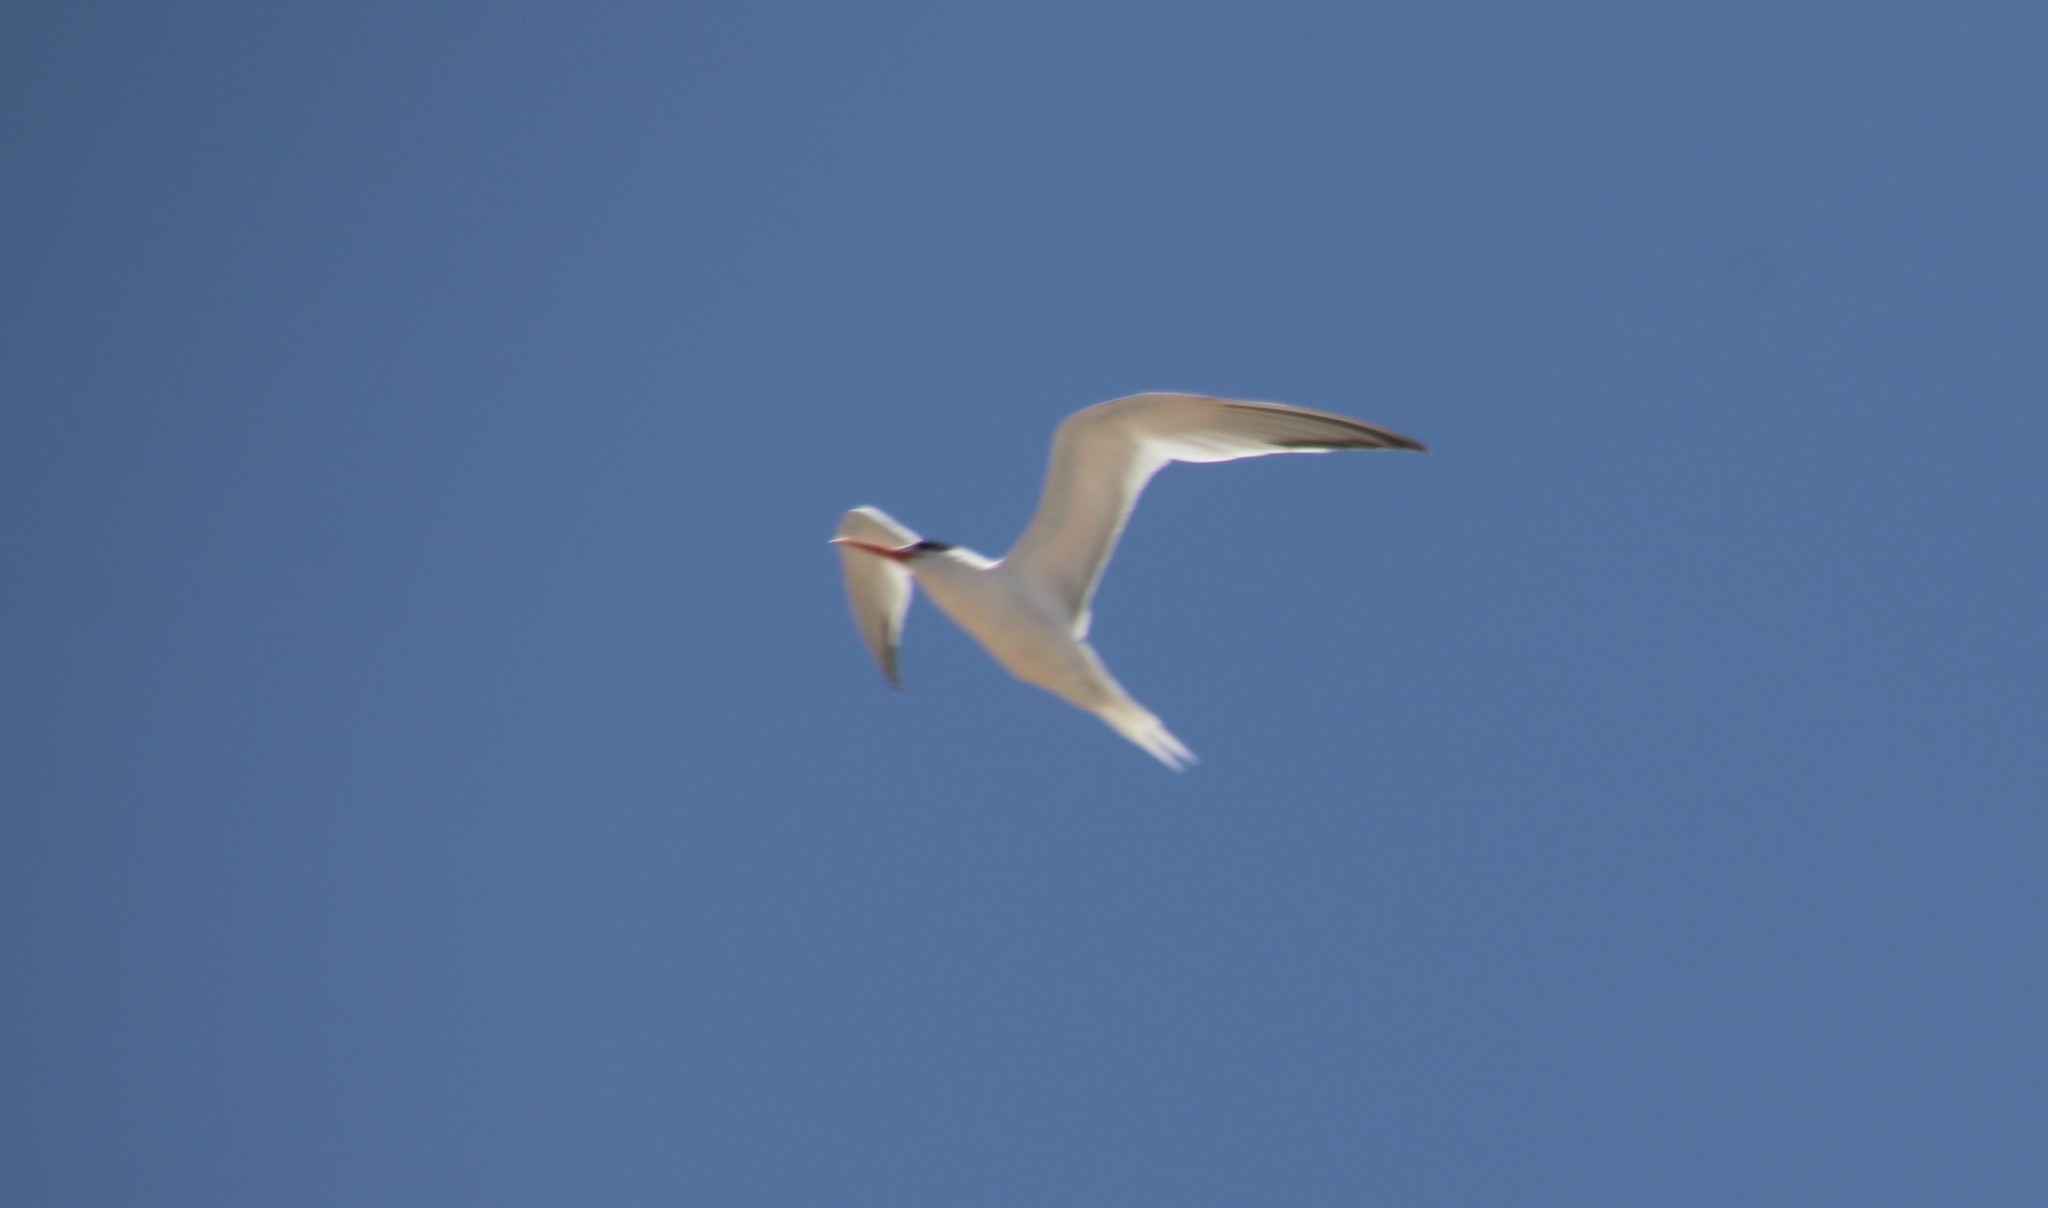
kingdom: Animalia
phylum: Chordata
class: Aves
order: Charadriiformes
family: Laridae
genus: Thalasseus
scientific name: Thalasseus elegans
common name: Elegant tern
